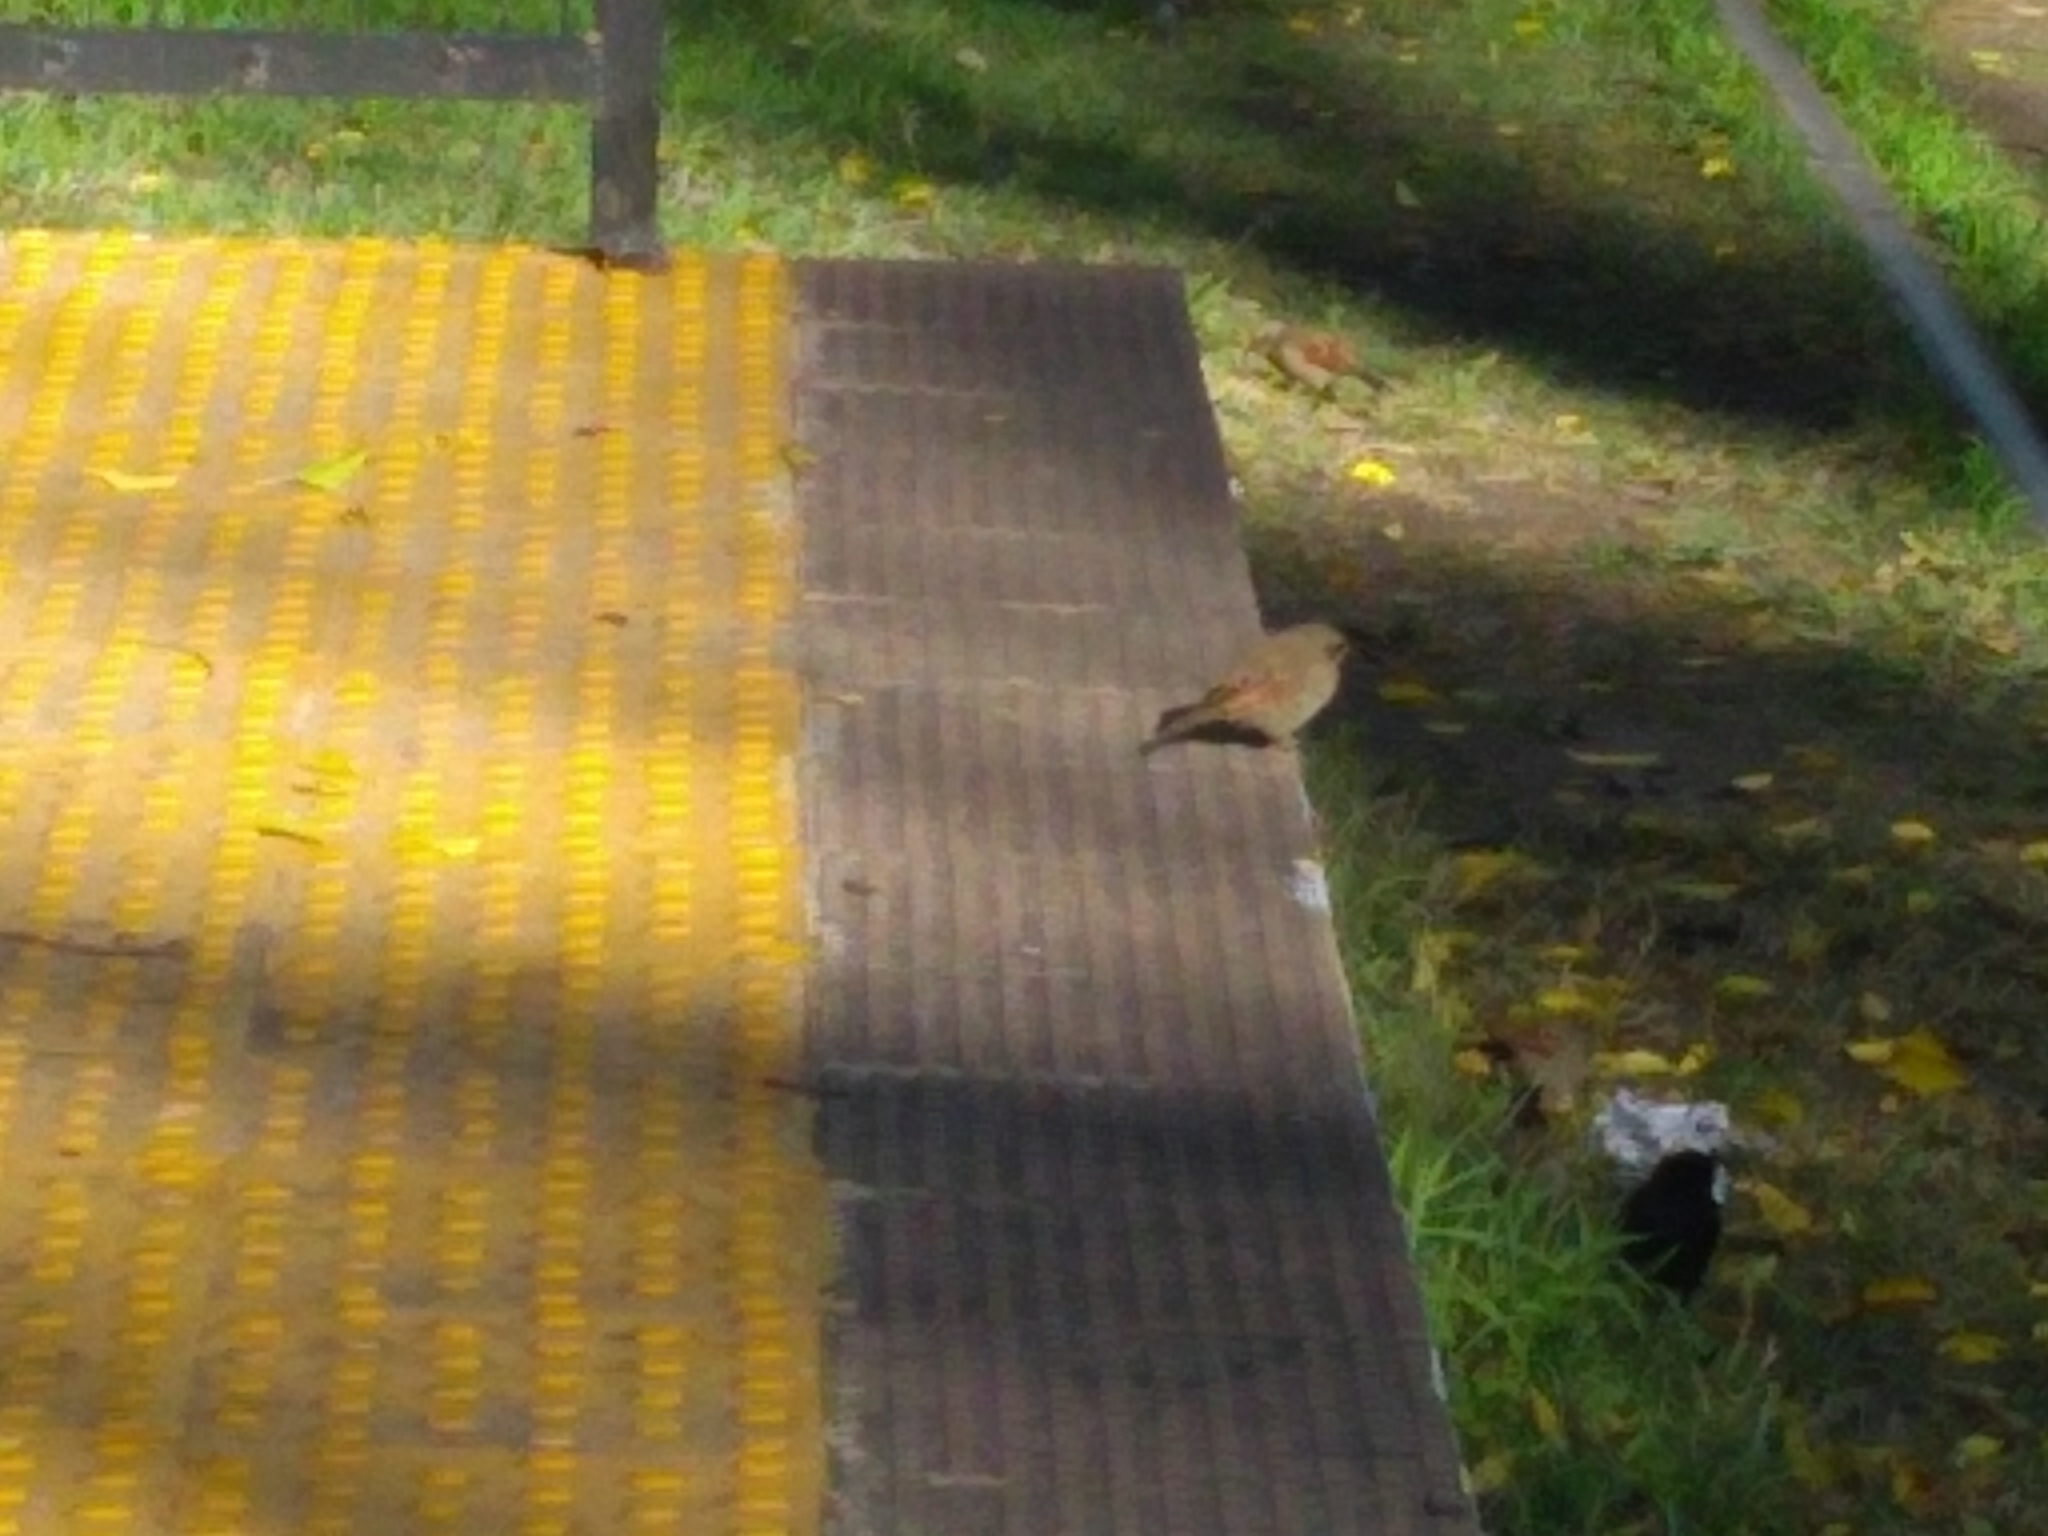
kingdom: Animalia
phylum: Chordata
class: Aves
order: Passeriformes
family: Icteridae
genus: Agelaioides
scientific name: Agelaioides badius
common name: Baywing
